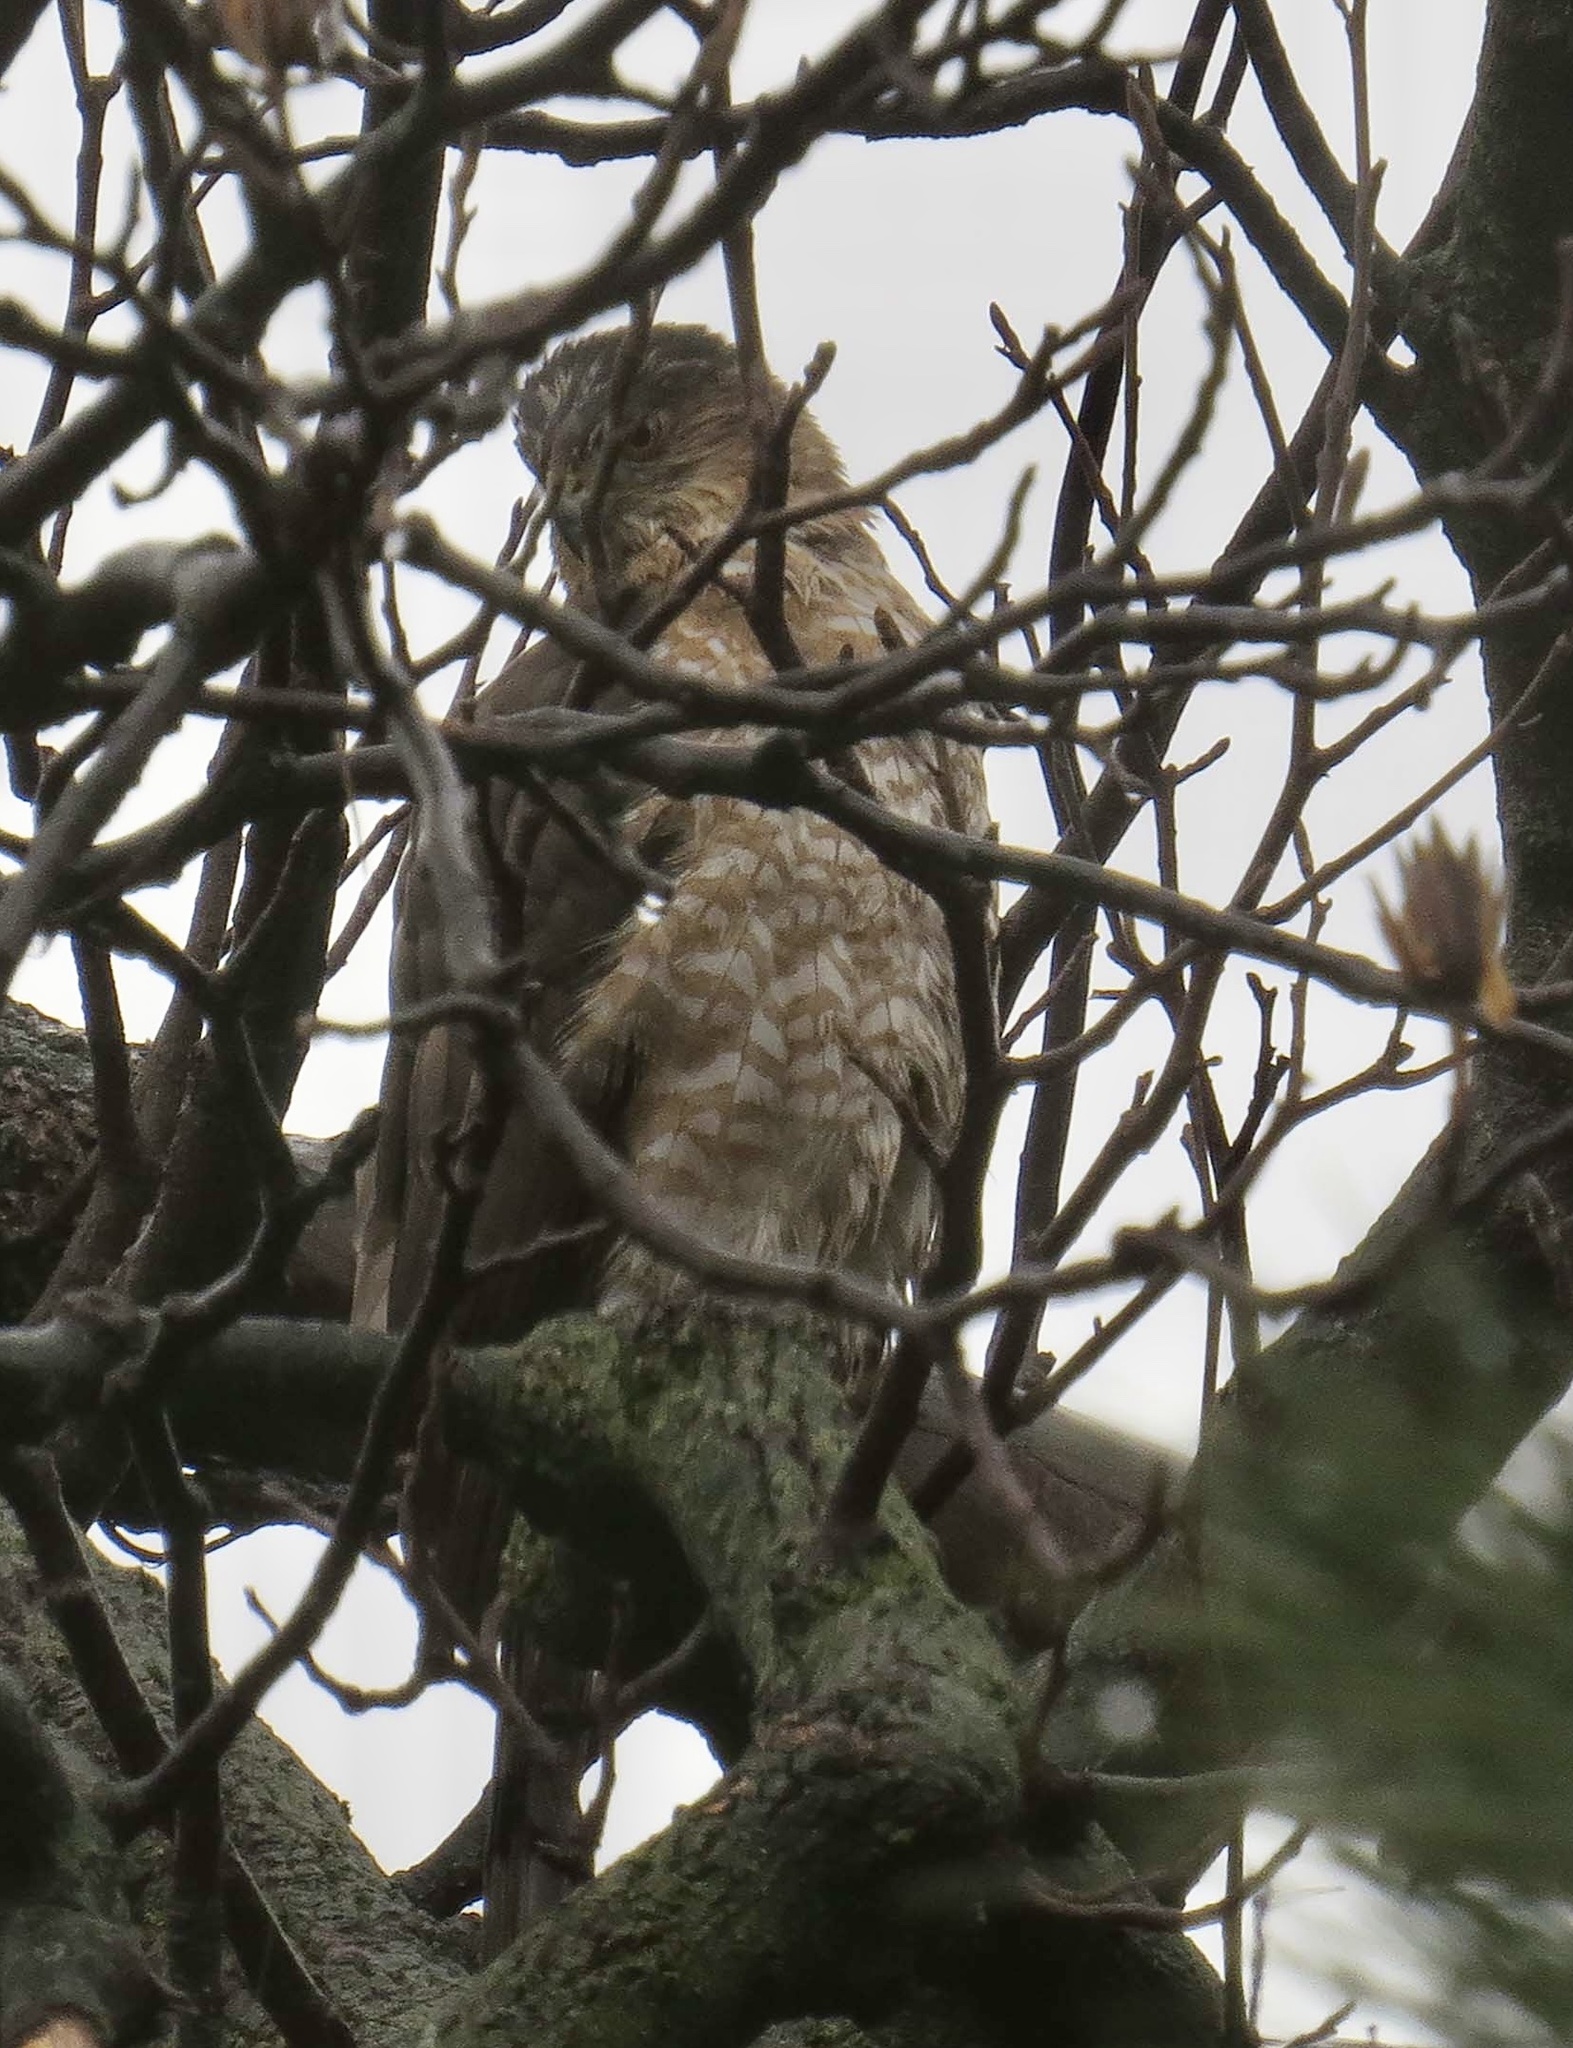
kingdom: Animalia
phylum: Chordata
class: Aves
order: Accipitriformes
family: Accipitridae
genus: Accipiter
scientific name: Accipiter cooperii
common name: Cooper's hawk
